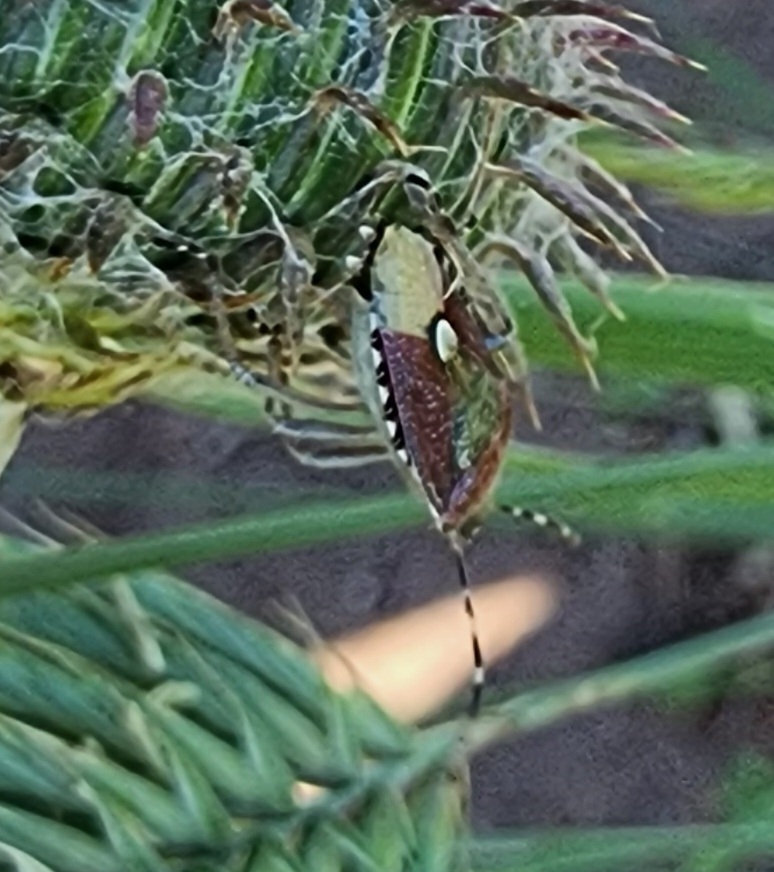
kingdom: Animalia
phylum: Arthropoda
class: Insecta
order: Hemiptera
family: Pentatomidae
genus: Dolycoris
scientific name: Dolycoris baccarum
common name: Sloe bug
